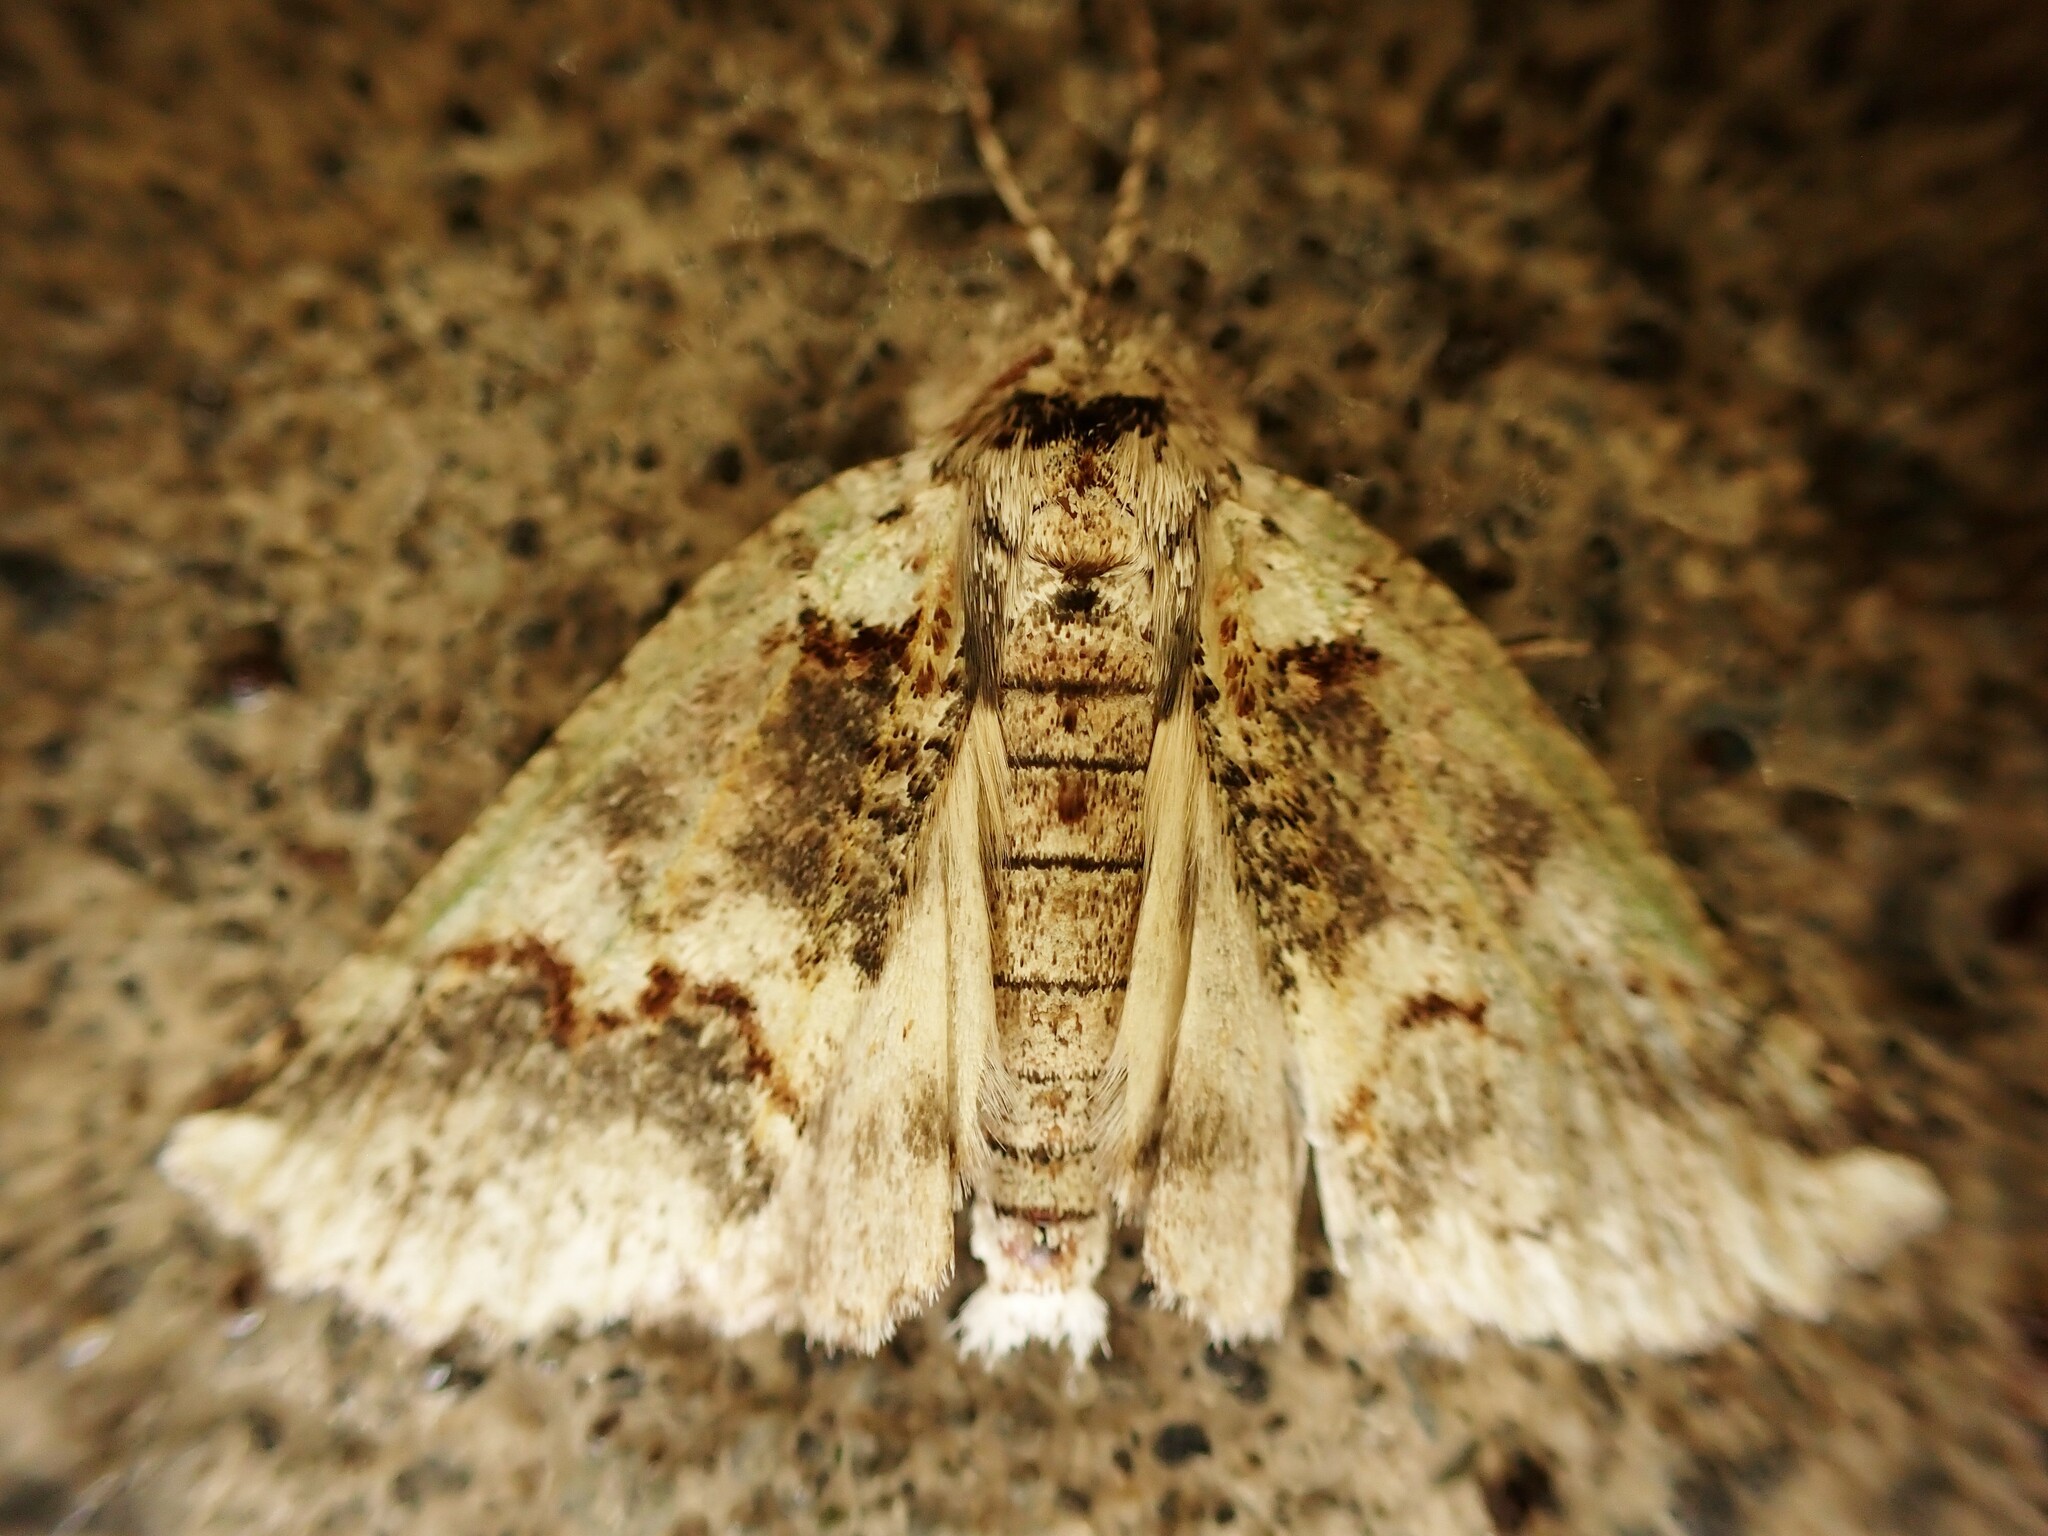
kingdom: Animalia
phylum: Arthropoda
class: Insecta
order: Lepidoptera
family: Geometridae
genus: Declana
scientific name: Declana floccosa
